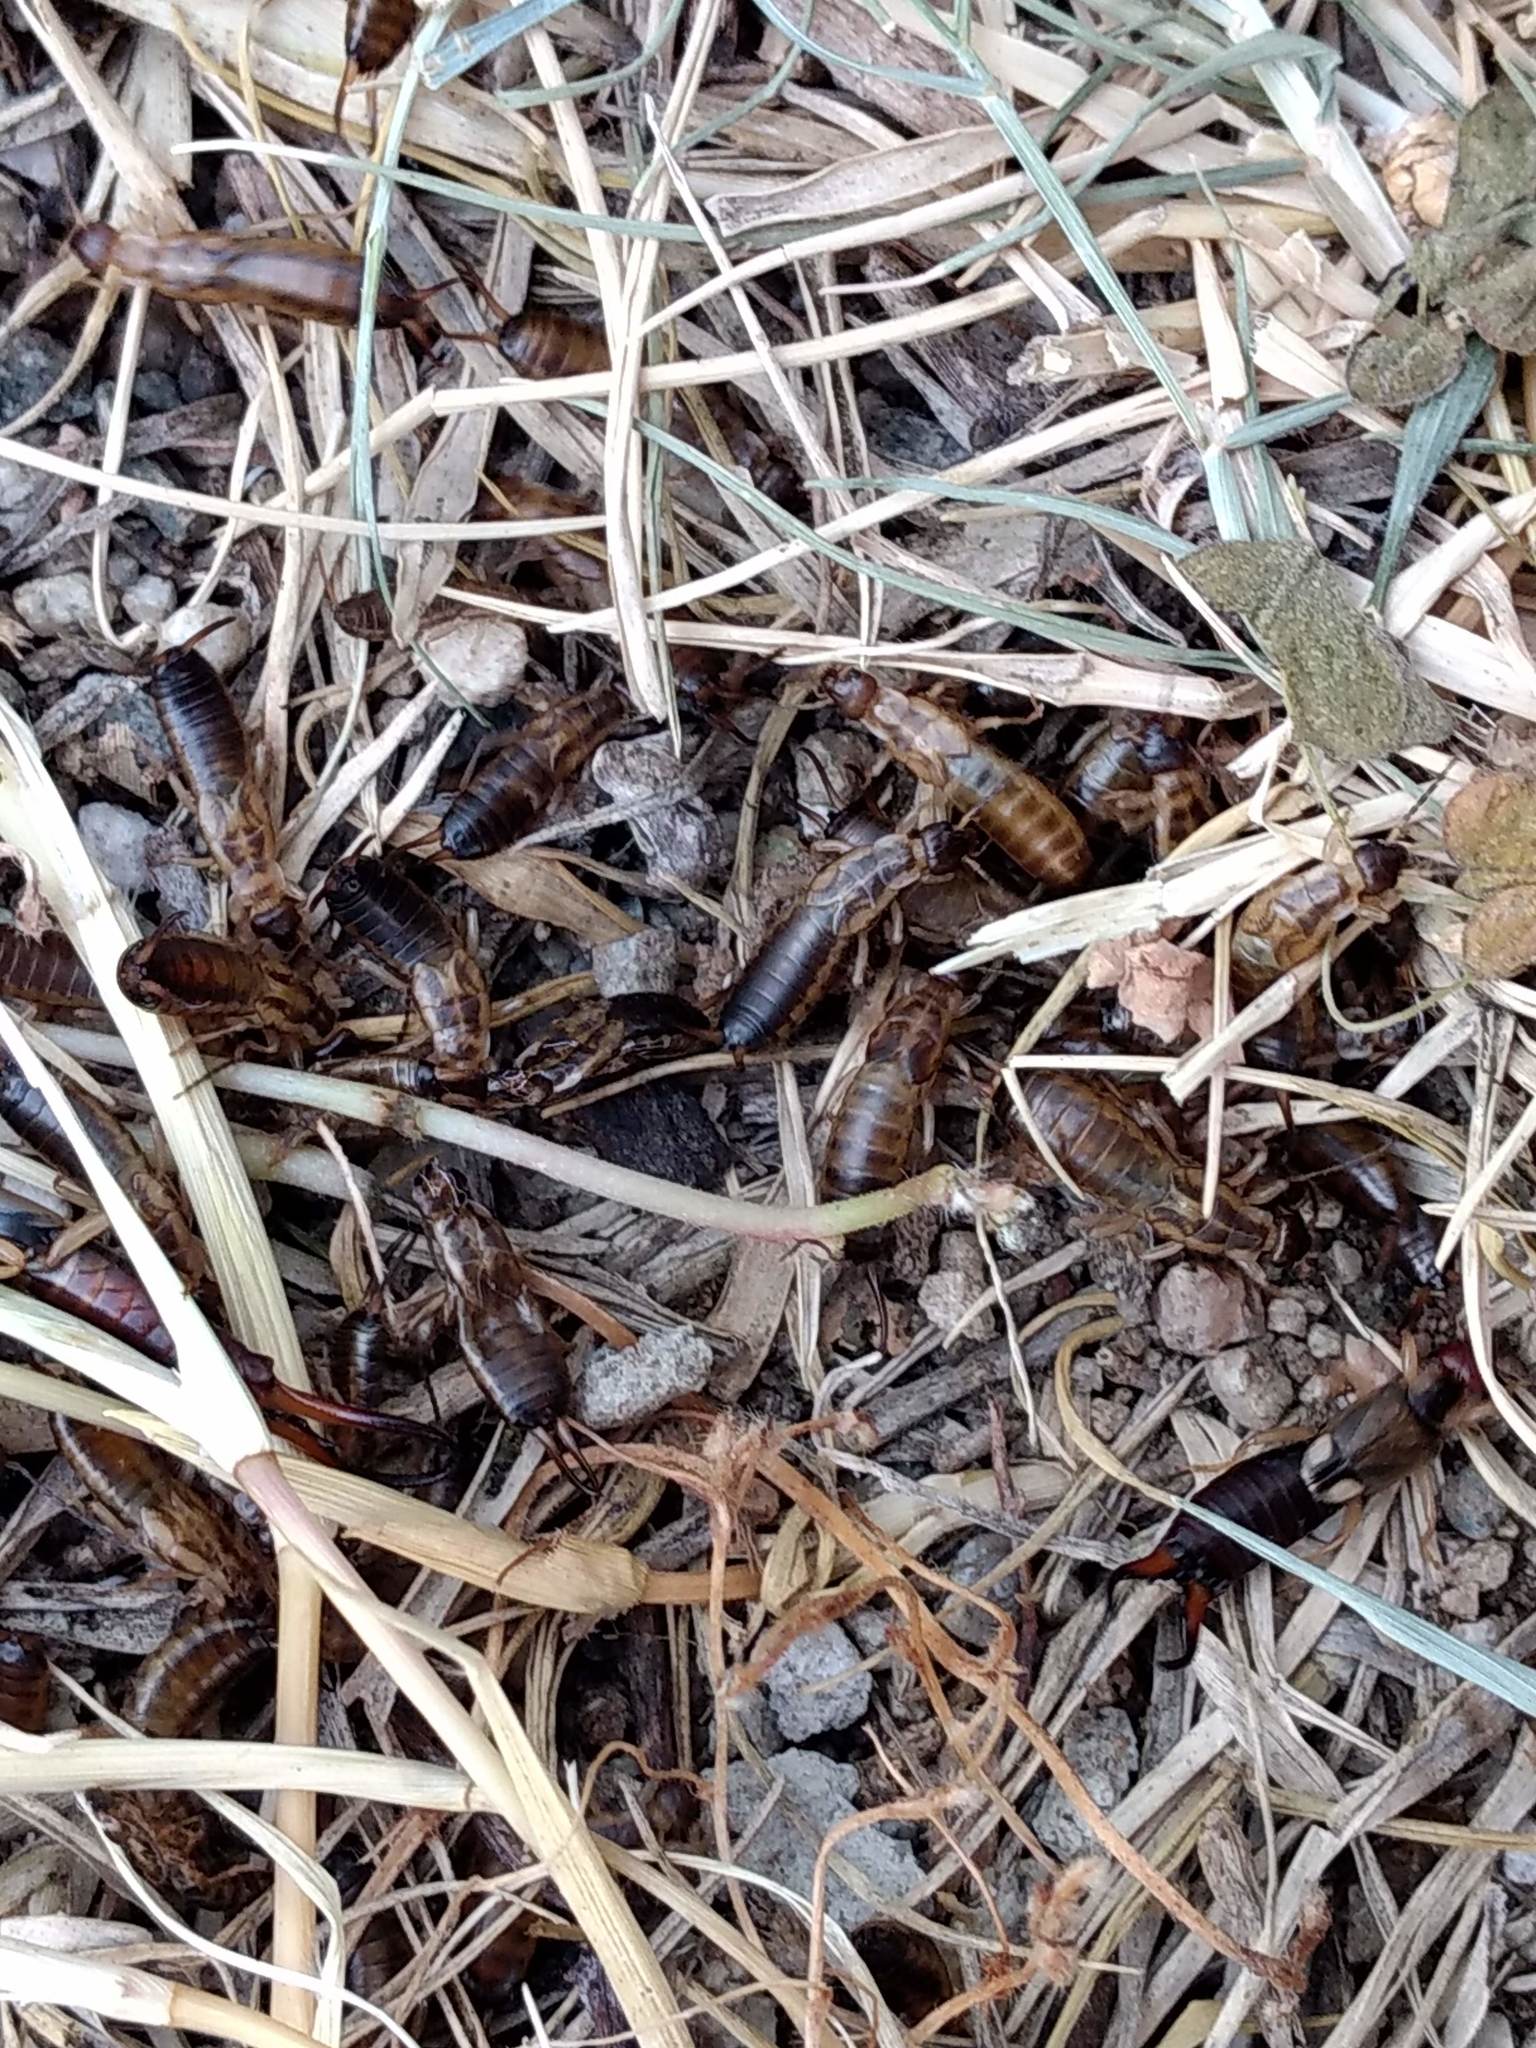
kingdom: Animalia
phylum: Arthropoda
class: Insecta
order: Dermaptera
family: Forficulidae
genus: Forficula
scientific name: Forficula
